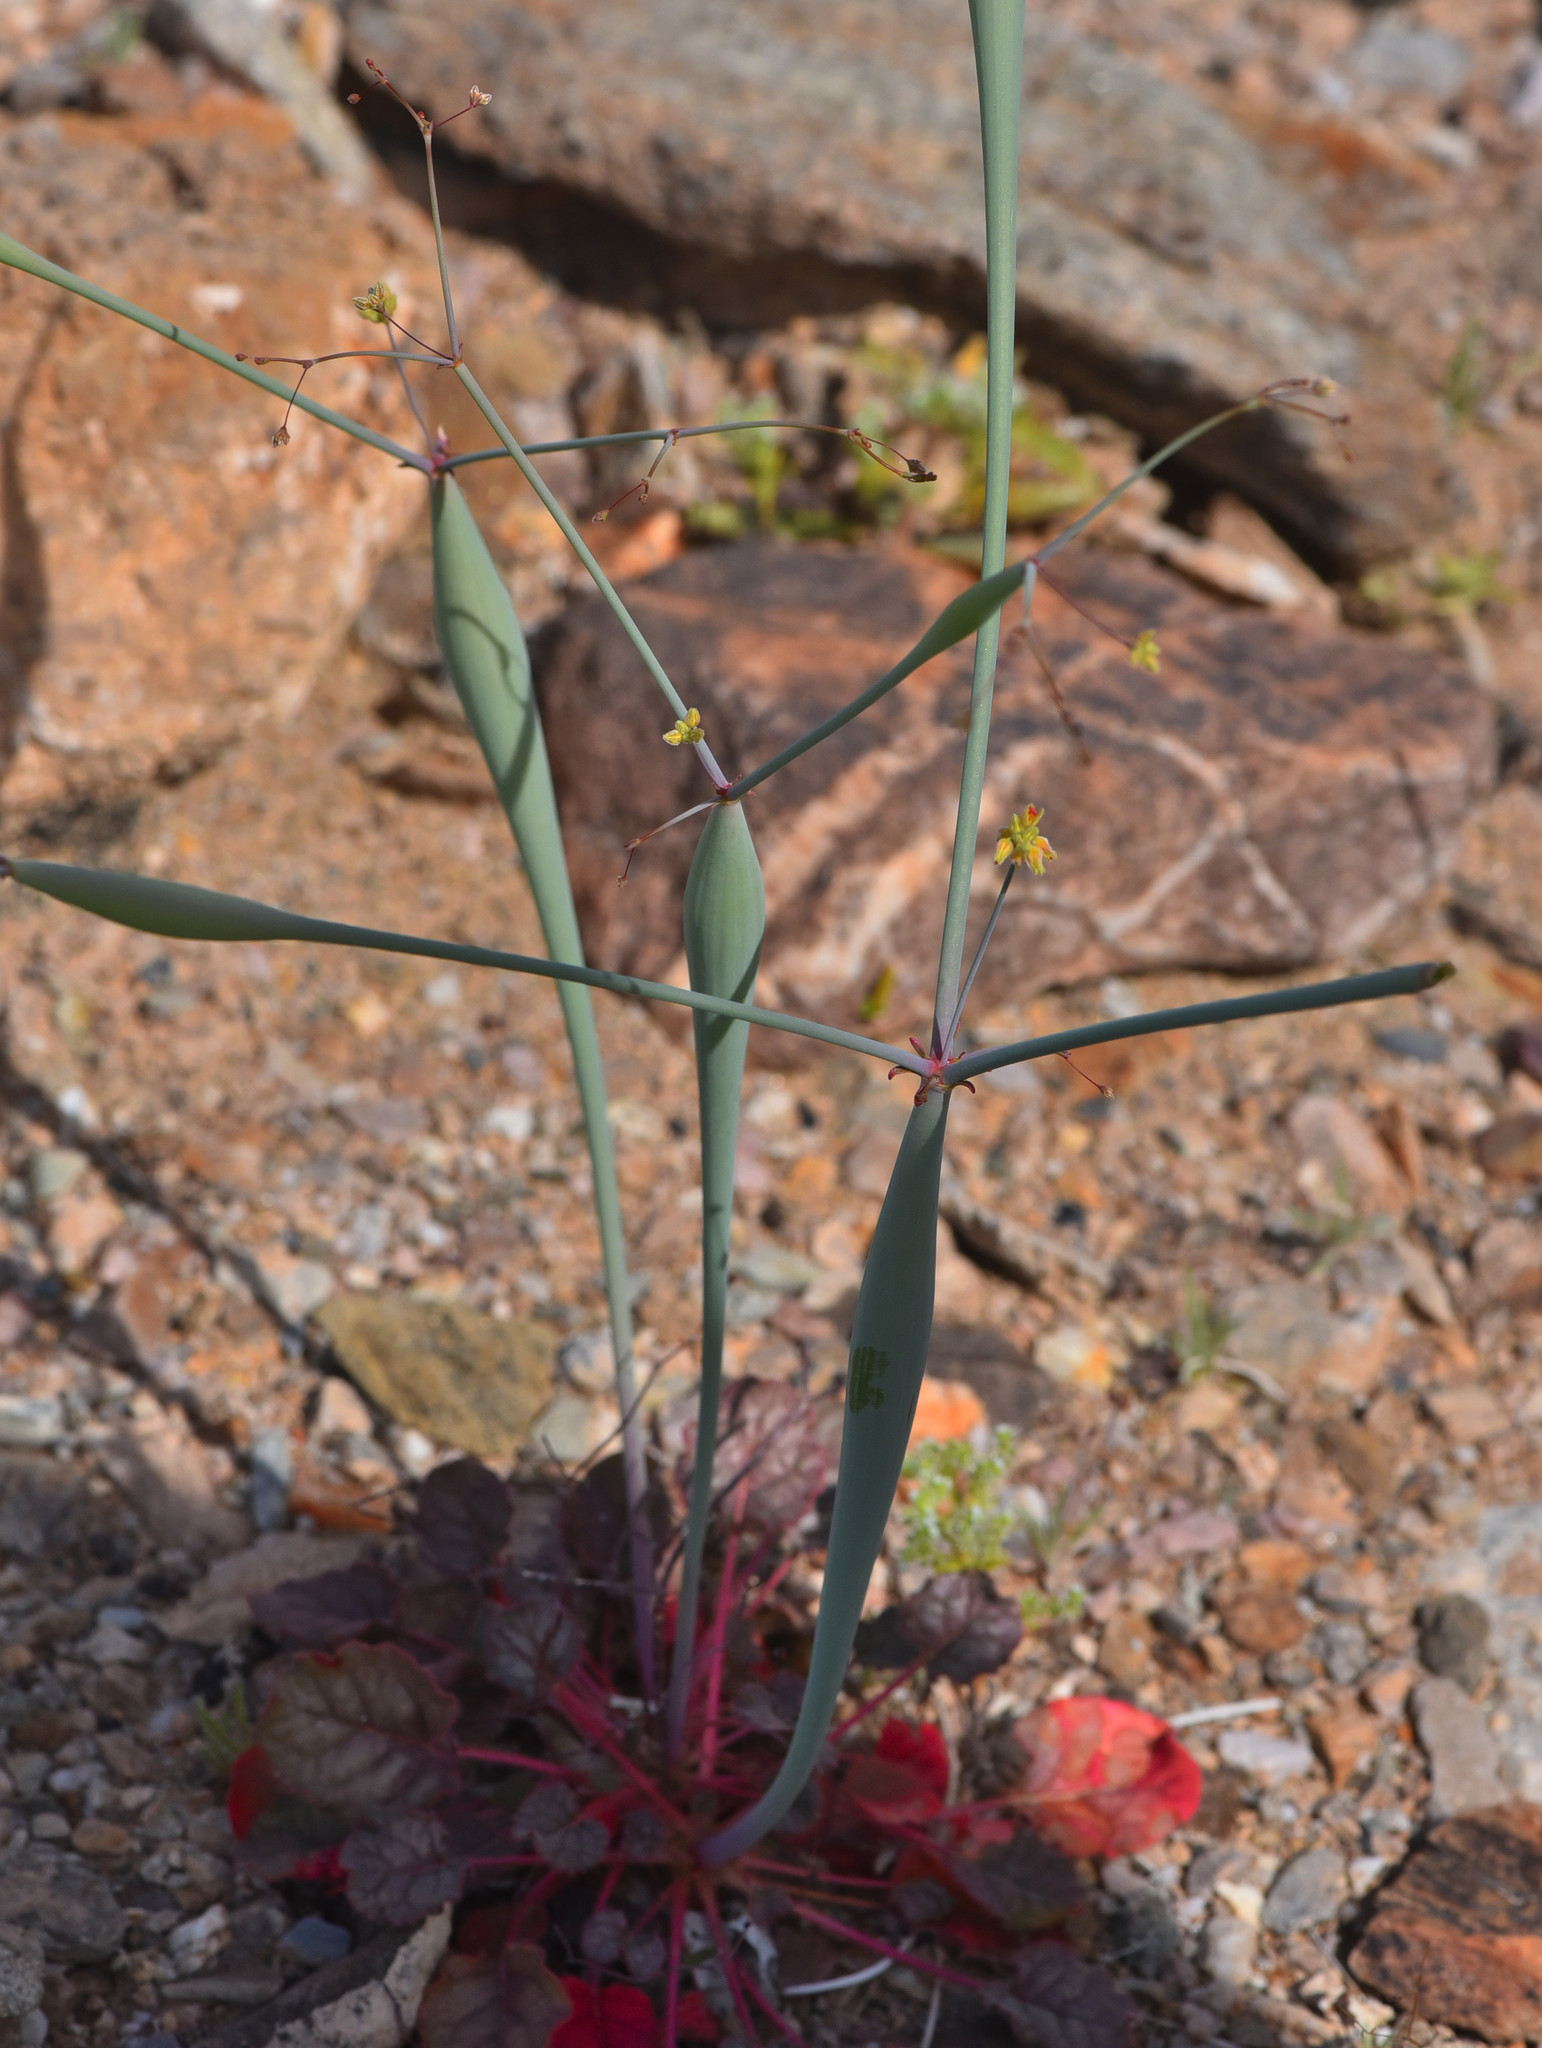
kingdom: Plantae
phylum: Tracheophyta
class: Magnoliopsida
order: Caryophyllales
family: Polygonaceae
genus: Eriogonum
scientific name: Eriogonum inflatum
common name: Desert trumpet
